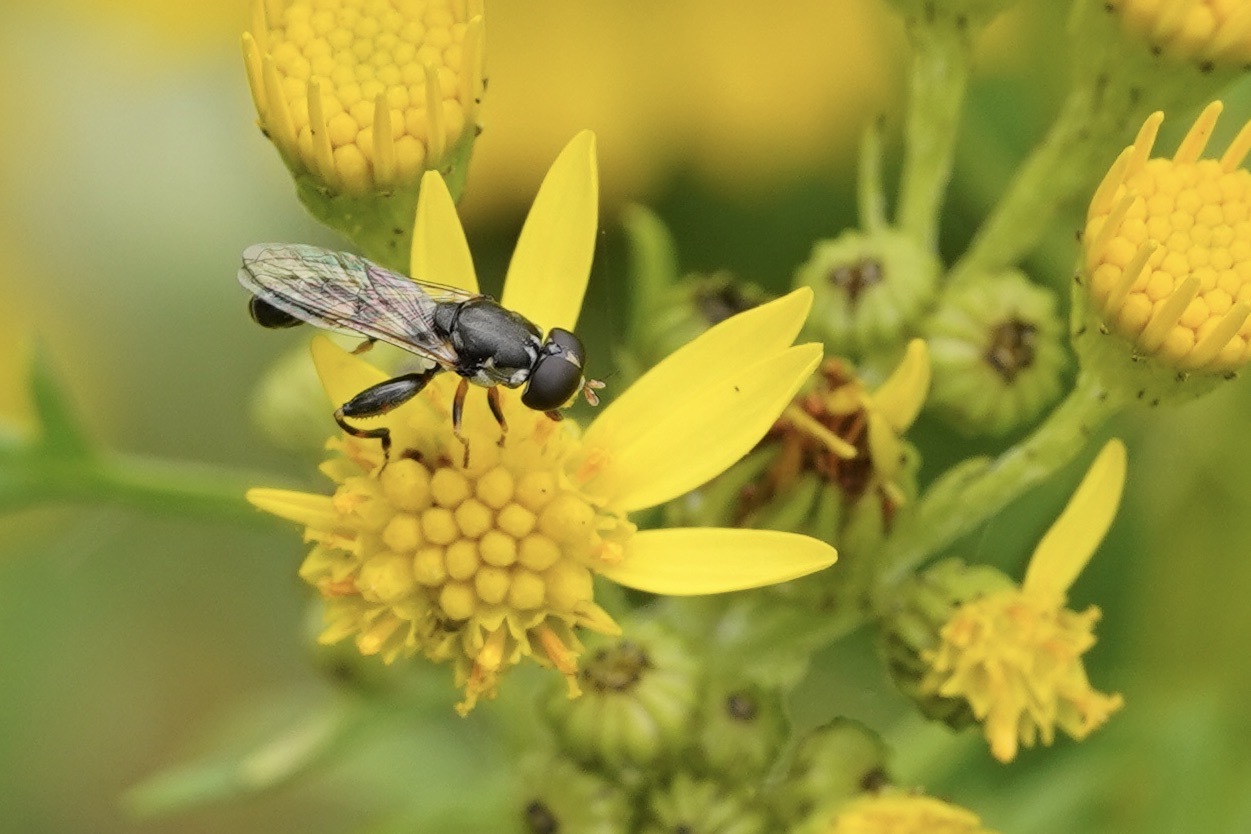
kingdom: Animalia
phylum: Arthropoda
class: Insecta
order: Diptera
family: Syrphidae
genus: Syritta
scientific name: Syritta pipiens
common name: Hover fly
